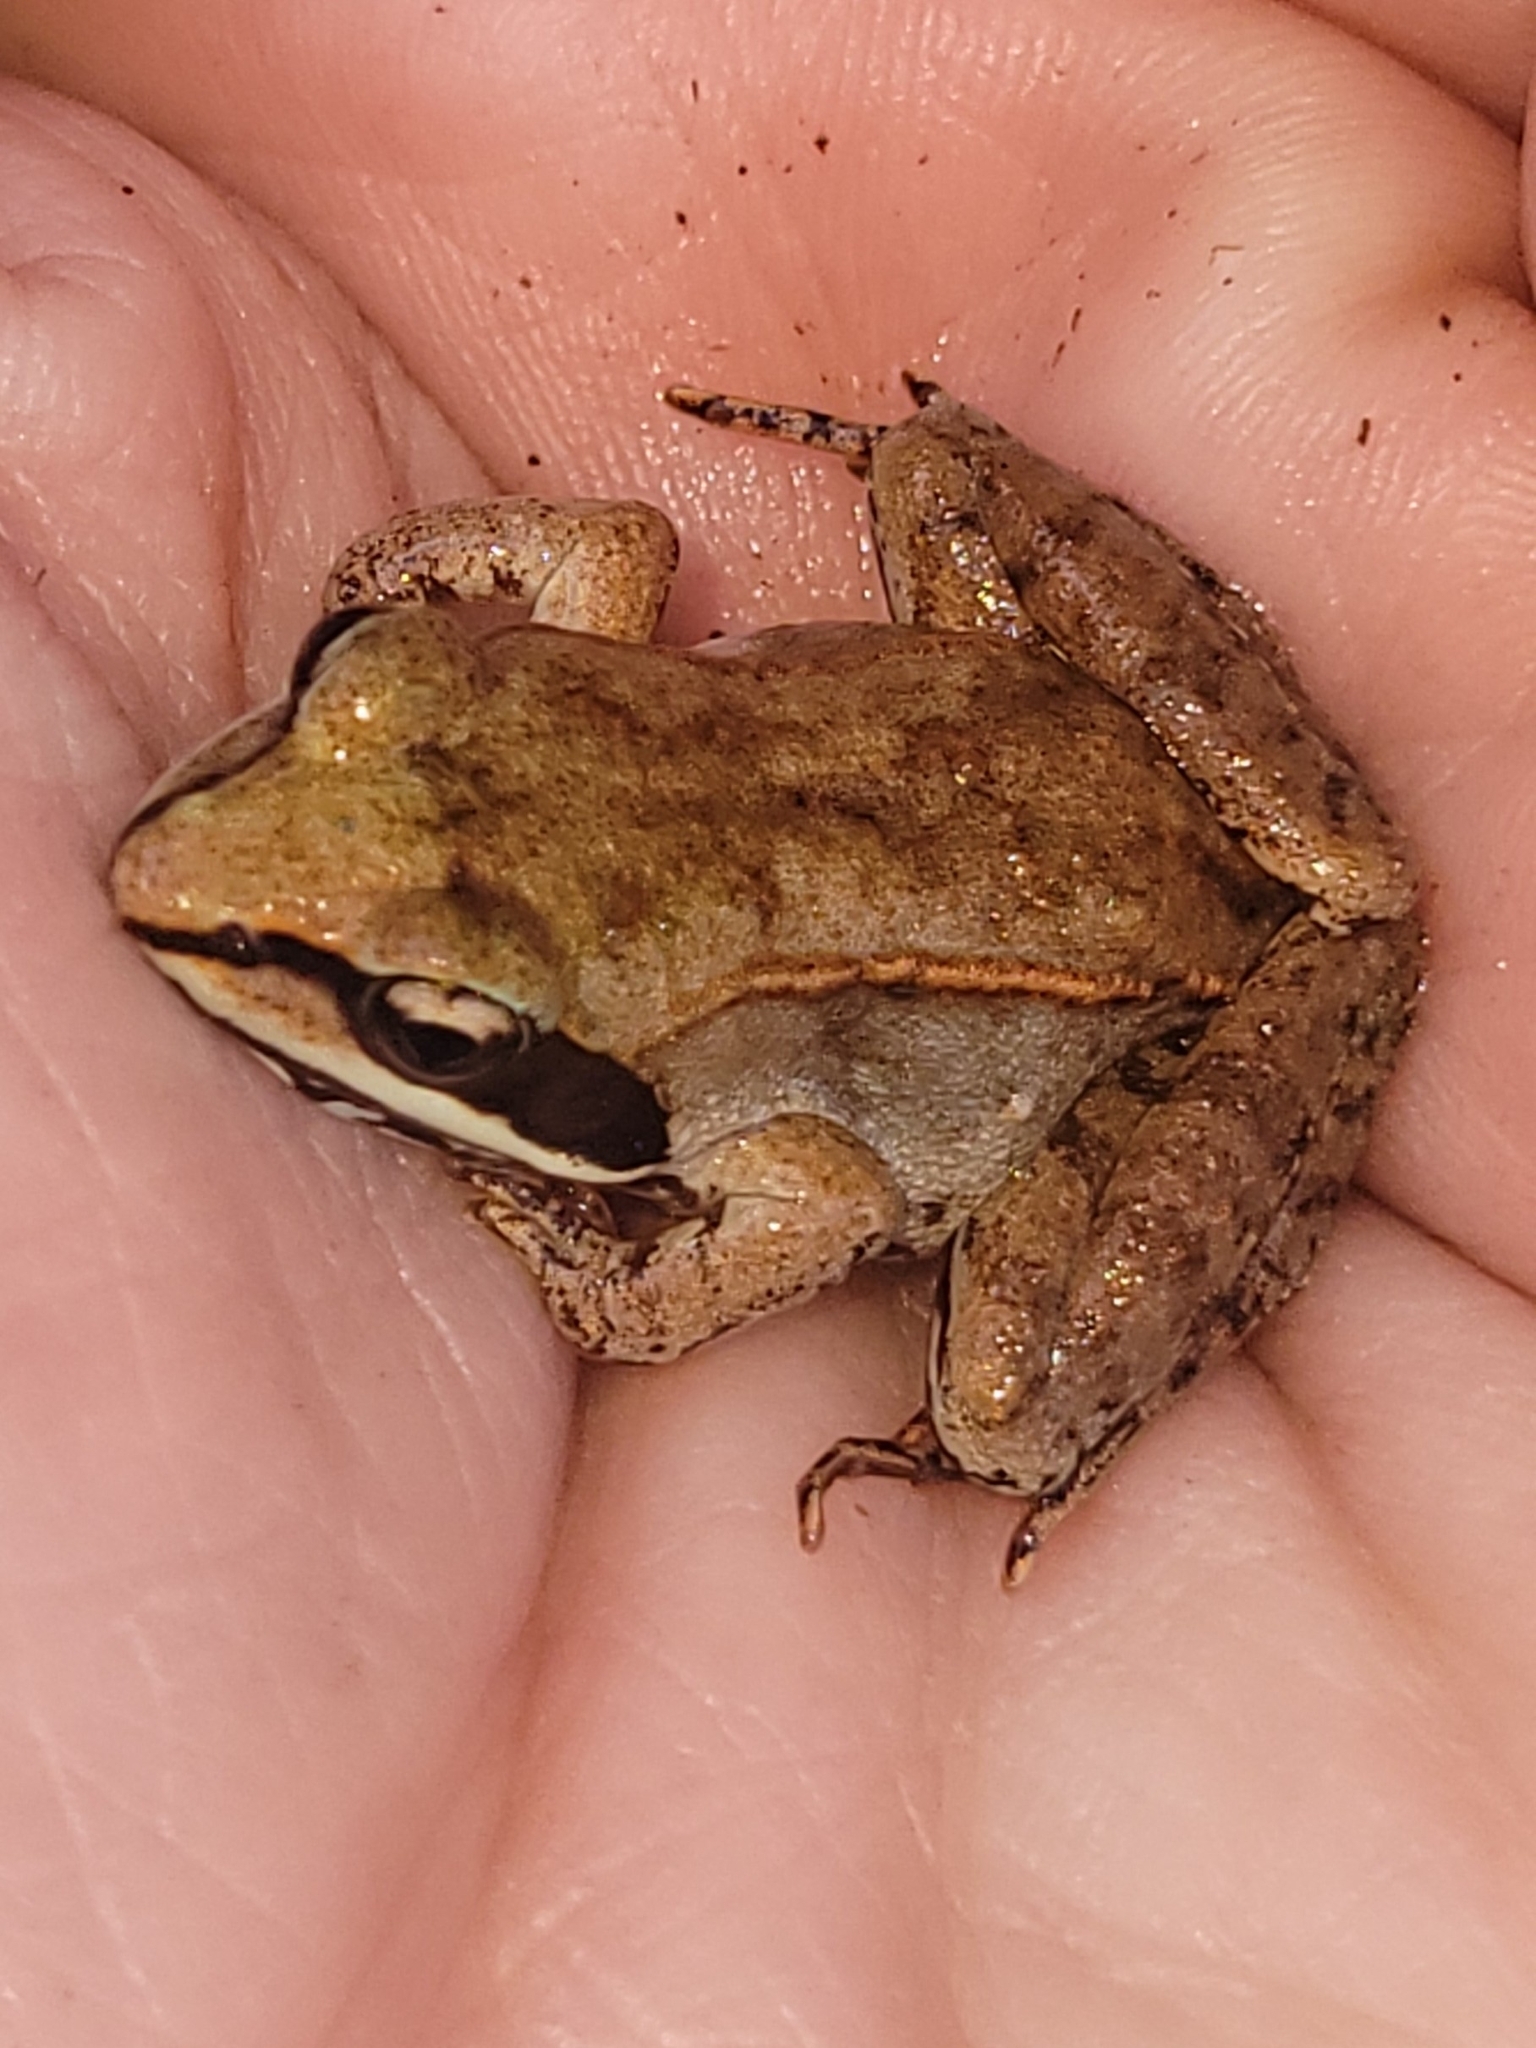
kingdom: Animalia
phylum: Chordata
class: Amphibia
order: Anura
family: Ranidae
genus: Lithobates
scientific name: Lithobates sylvaticus
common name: Wood frog
